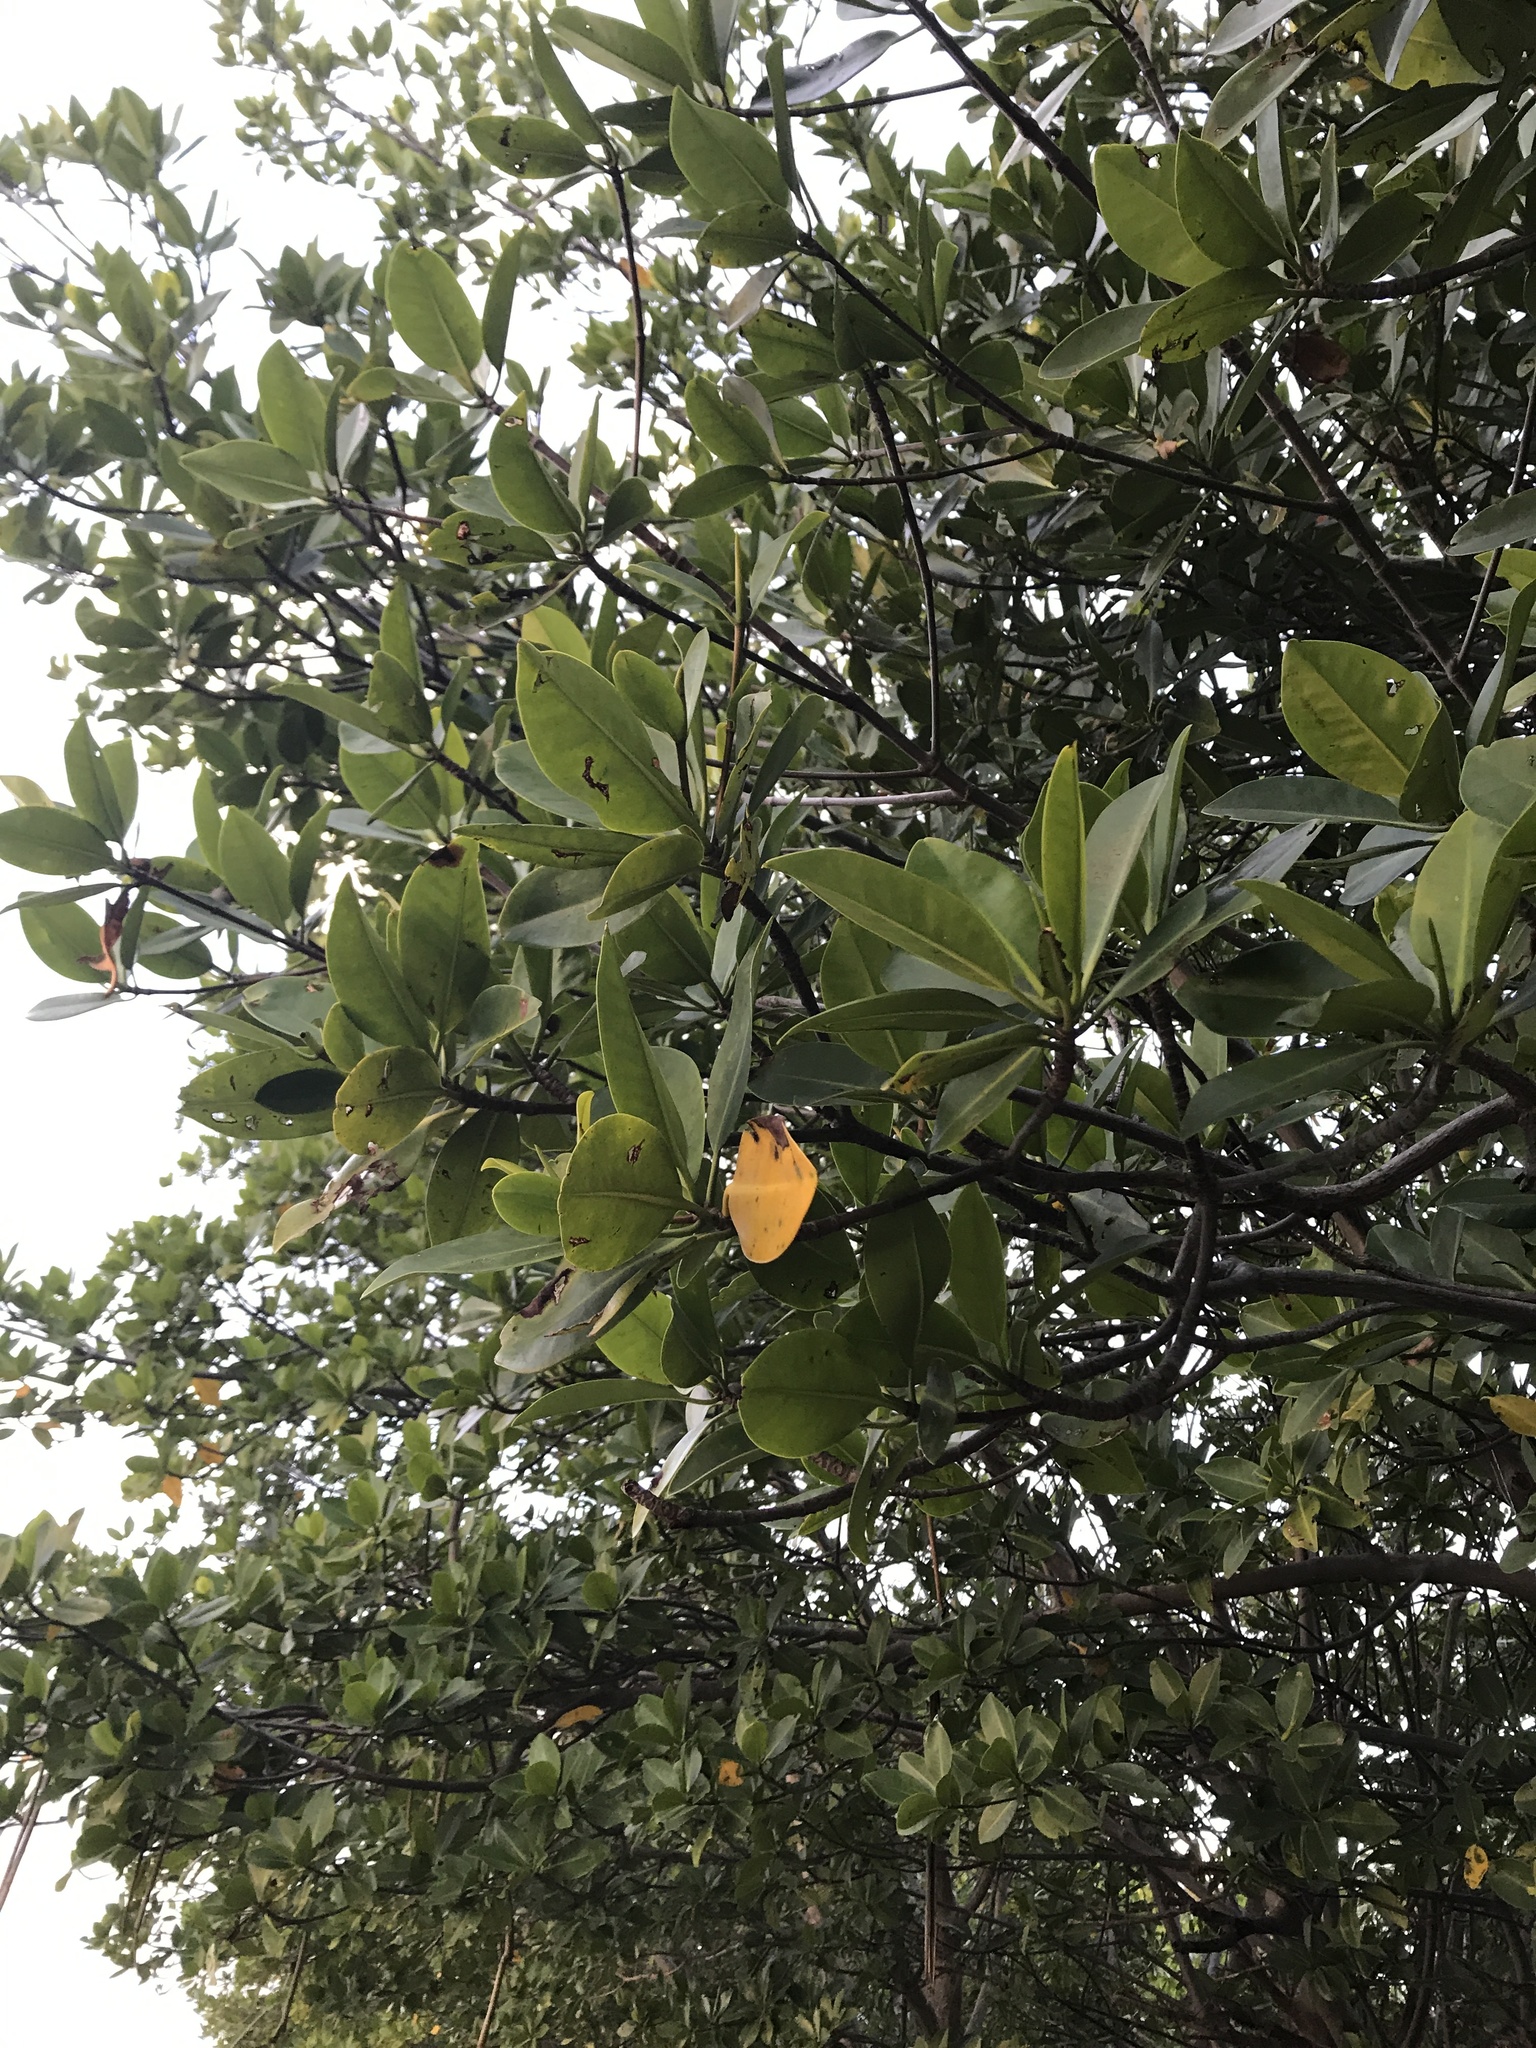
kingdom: Plantae
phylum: Tracheophyta
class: Magnoliopsida
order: Malpighiales
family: Rhizophoraceae
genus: Rhizophora
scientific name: Rhizophora mangle
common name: Red mangrove
